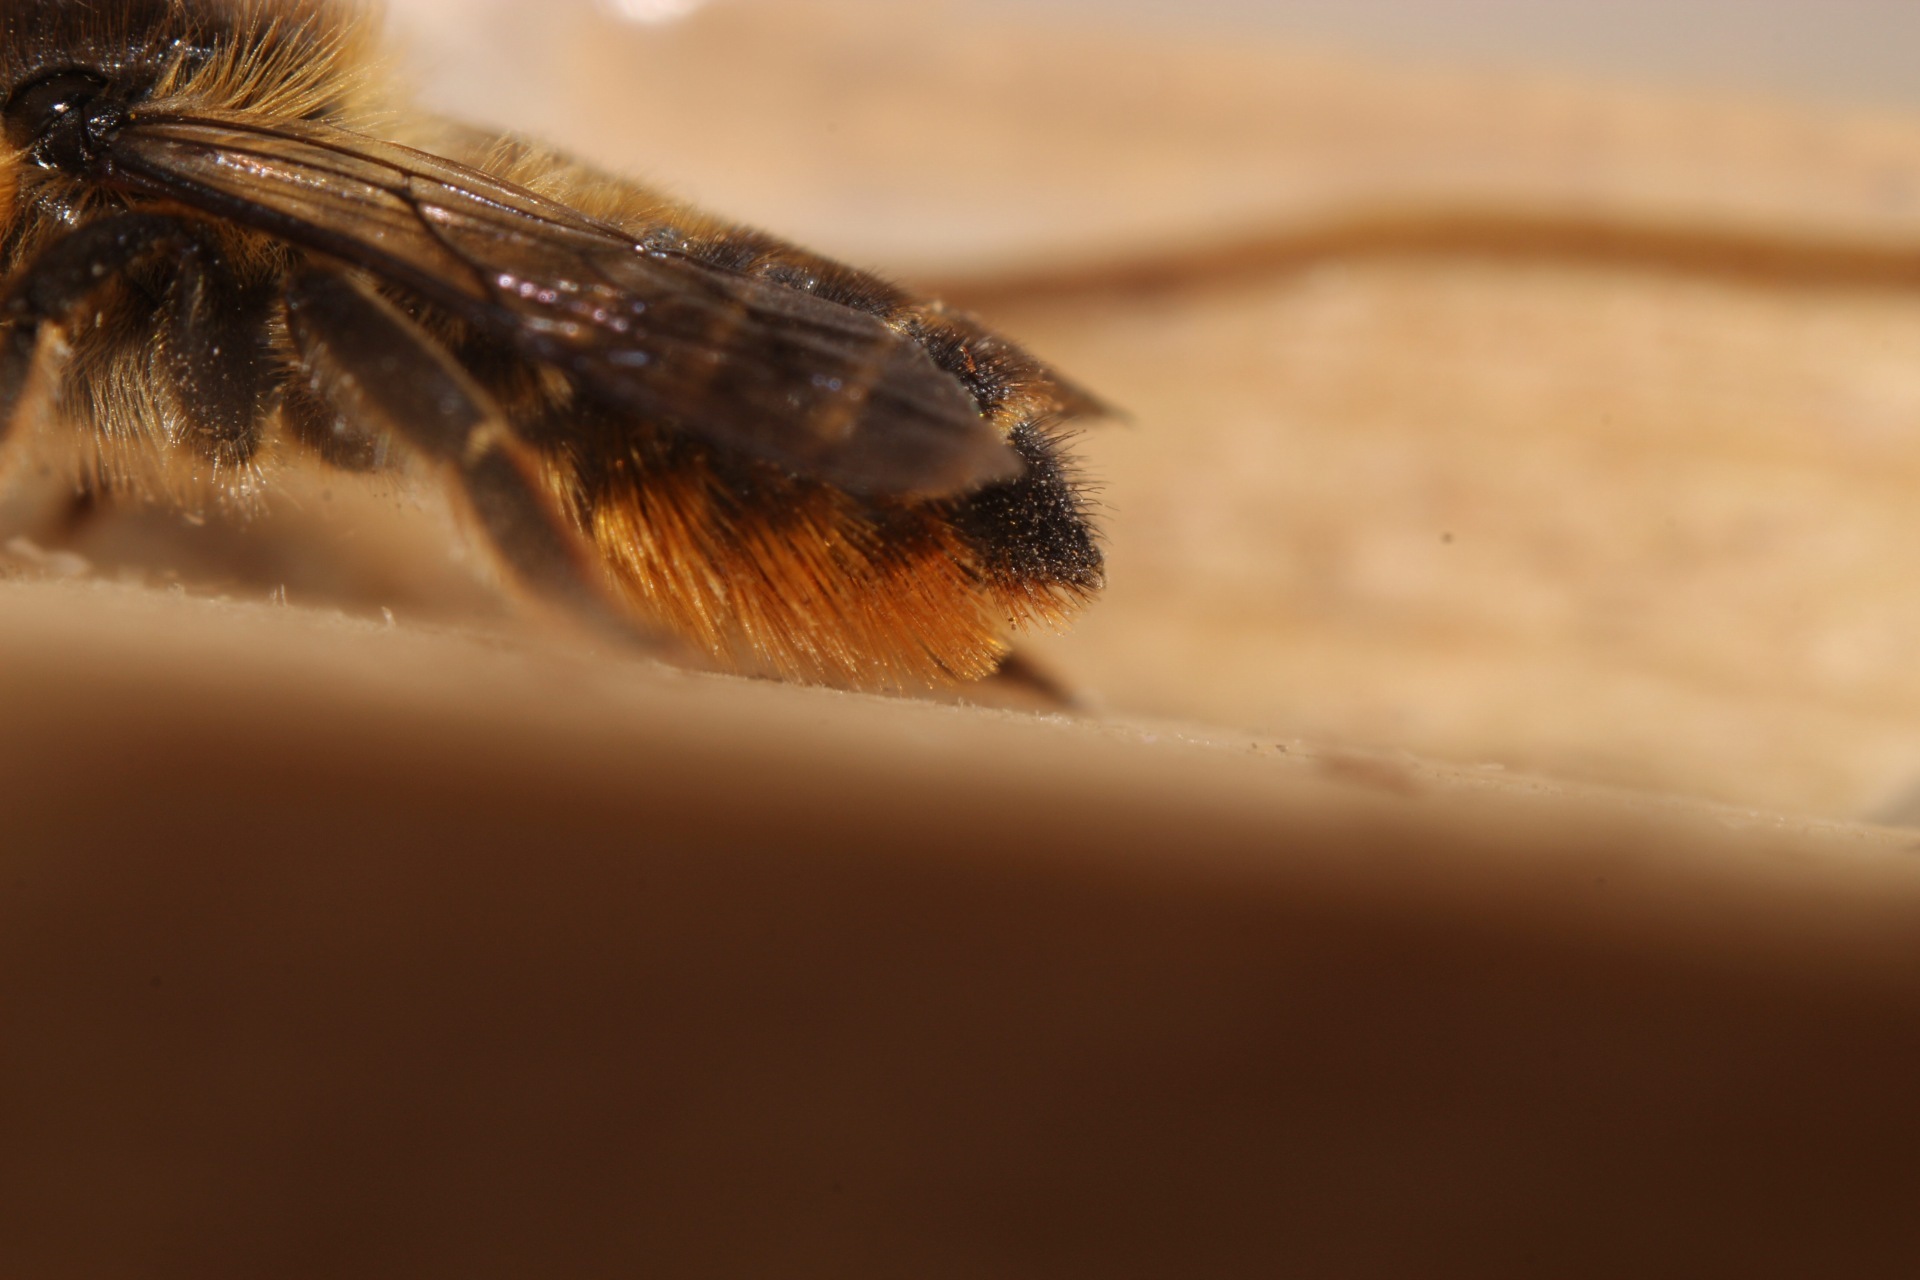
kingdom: Animalia
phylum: Arthropoda
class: Insecta
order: Hymenoptera
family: Megachilidae
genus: Megachile
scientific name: Megachile centuncularis
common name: Patchwork leafcutter bee
